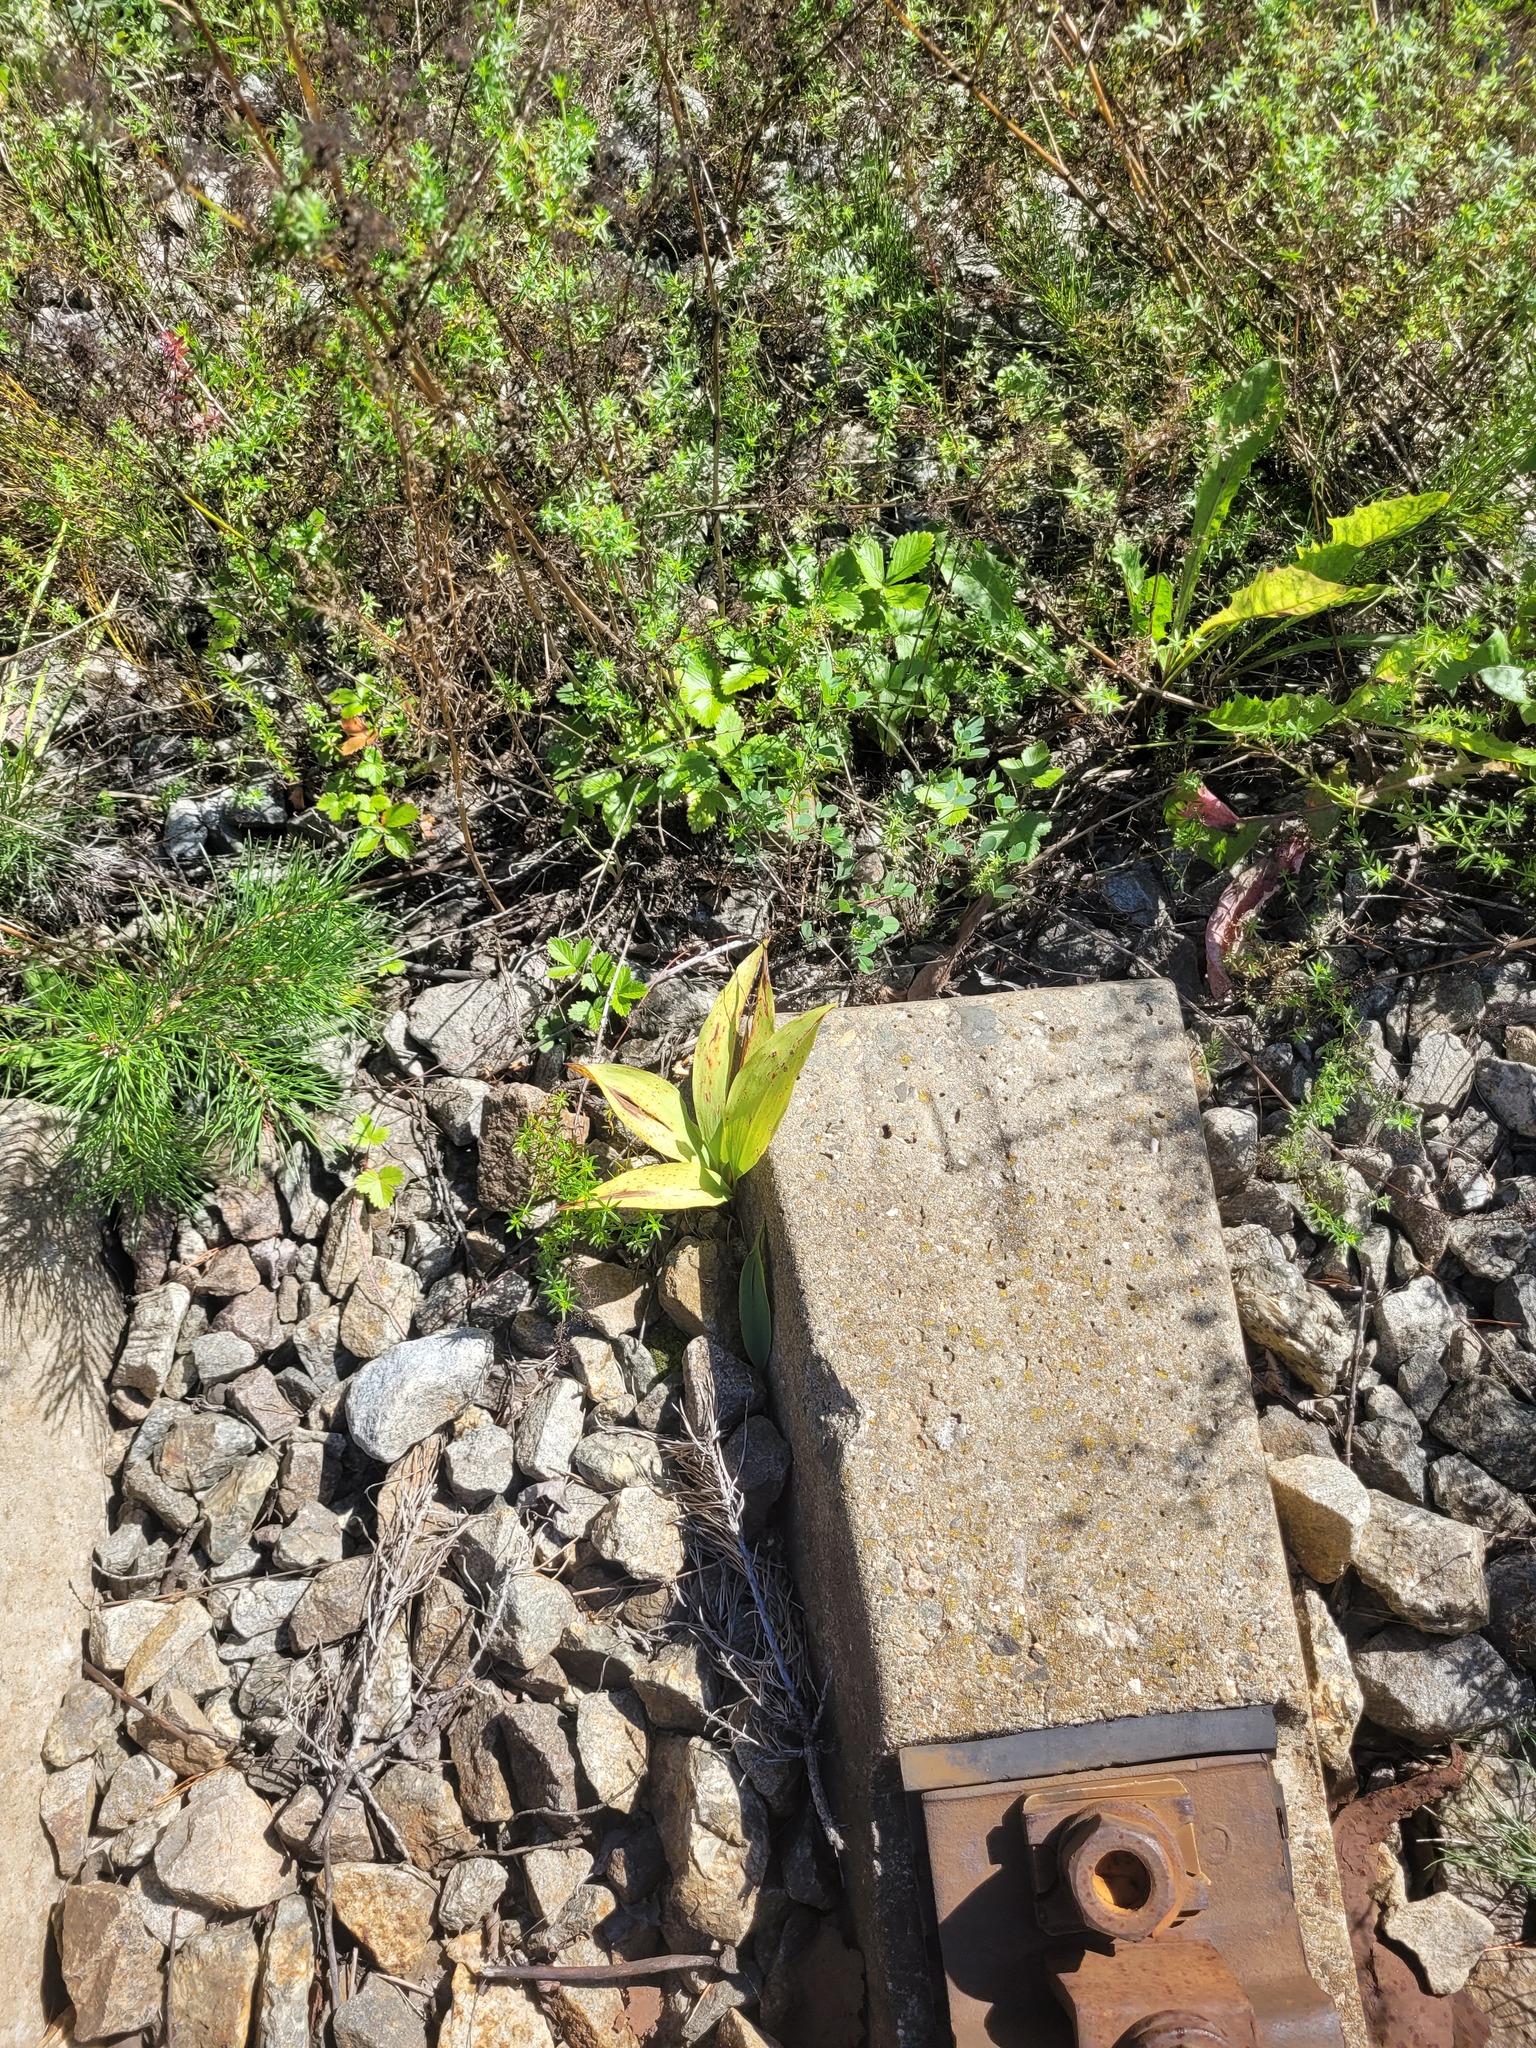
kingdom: Plantae
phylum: Tracheophyta
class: Liliopsida
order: Asparagales
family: Asparagaceae
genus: Convallaria
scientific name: Convallaria majalis
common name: Lily-of-the-valley
